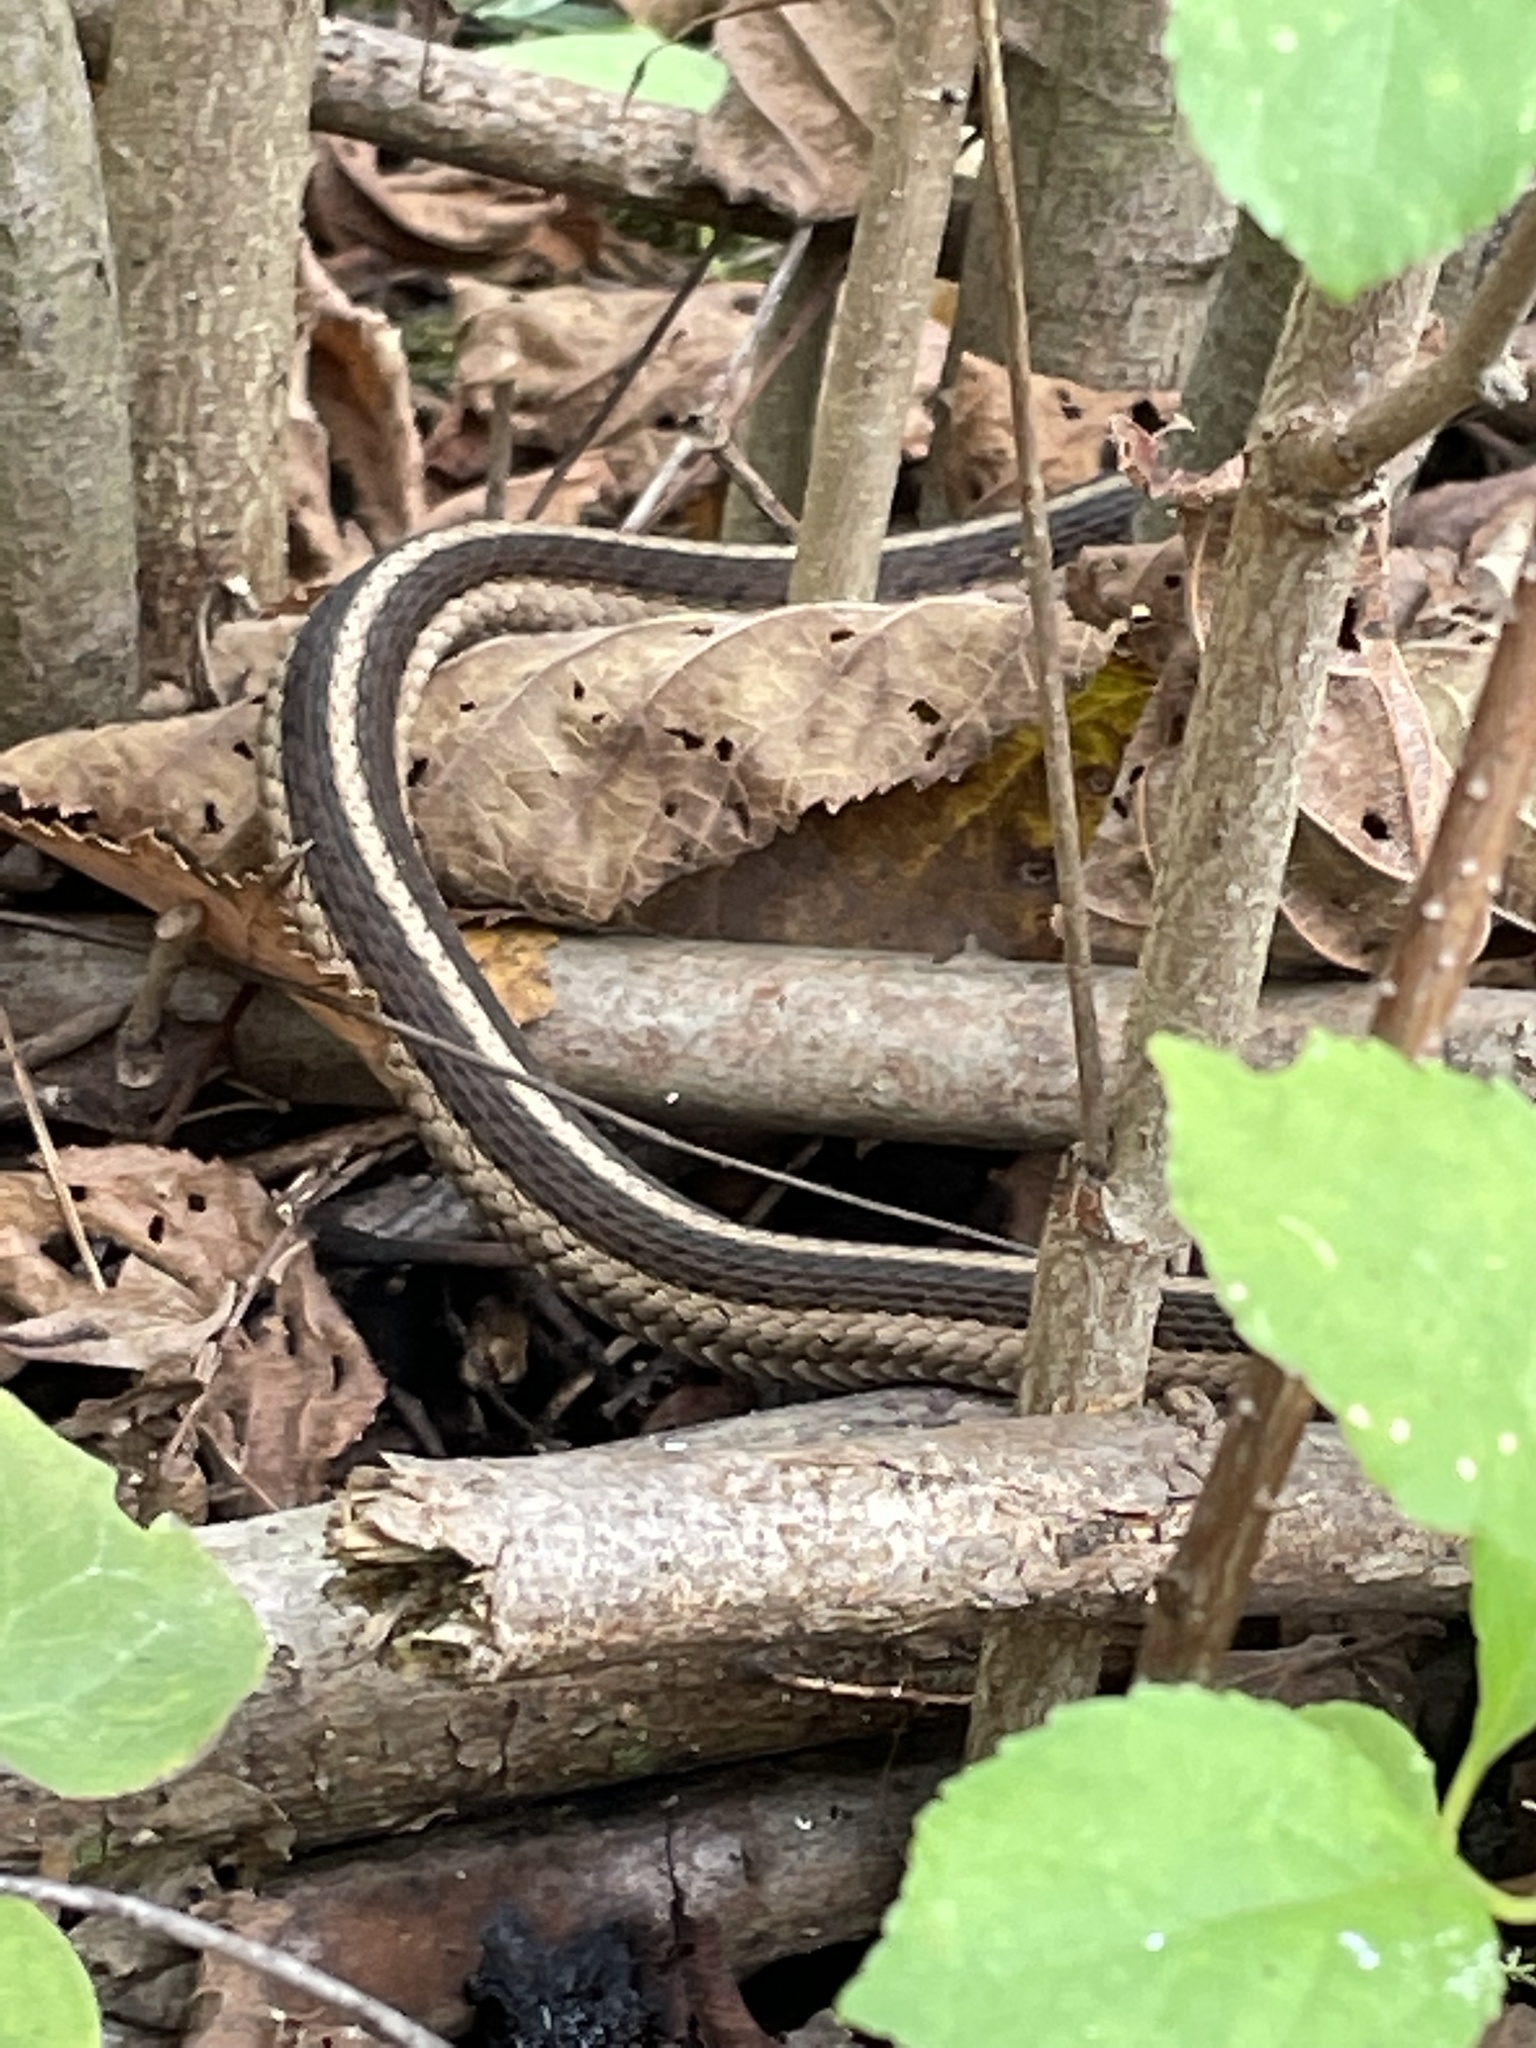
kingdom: Animalia
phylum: Chordata
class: Squamata
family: Colubridae
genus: Thamnophis
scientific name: Thamnophis sirtalis
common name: Common garter snake
